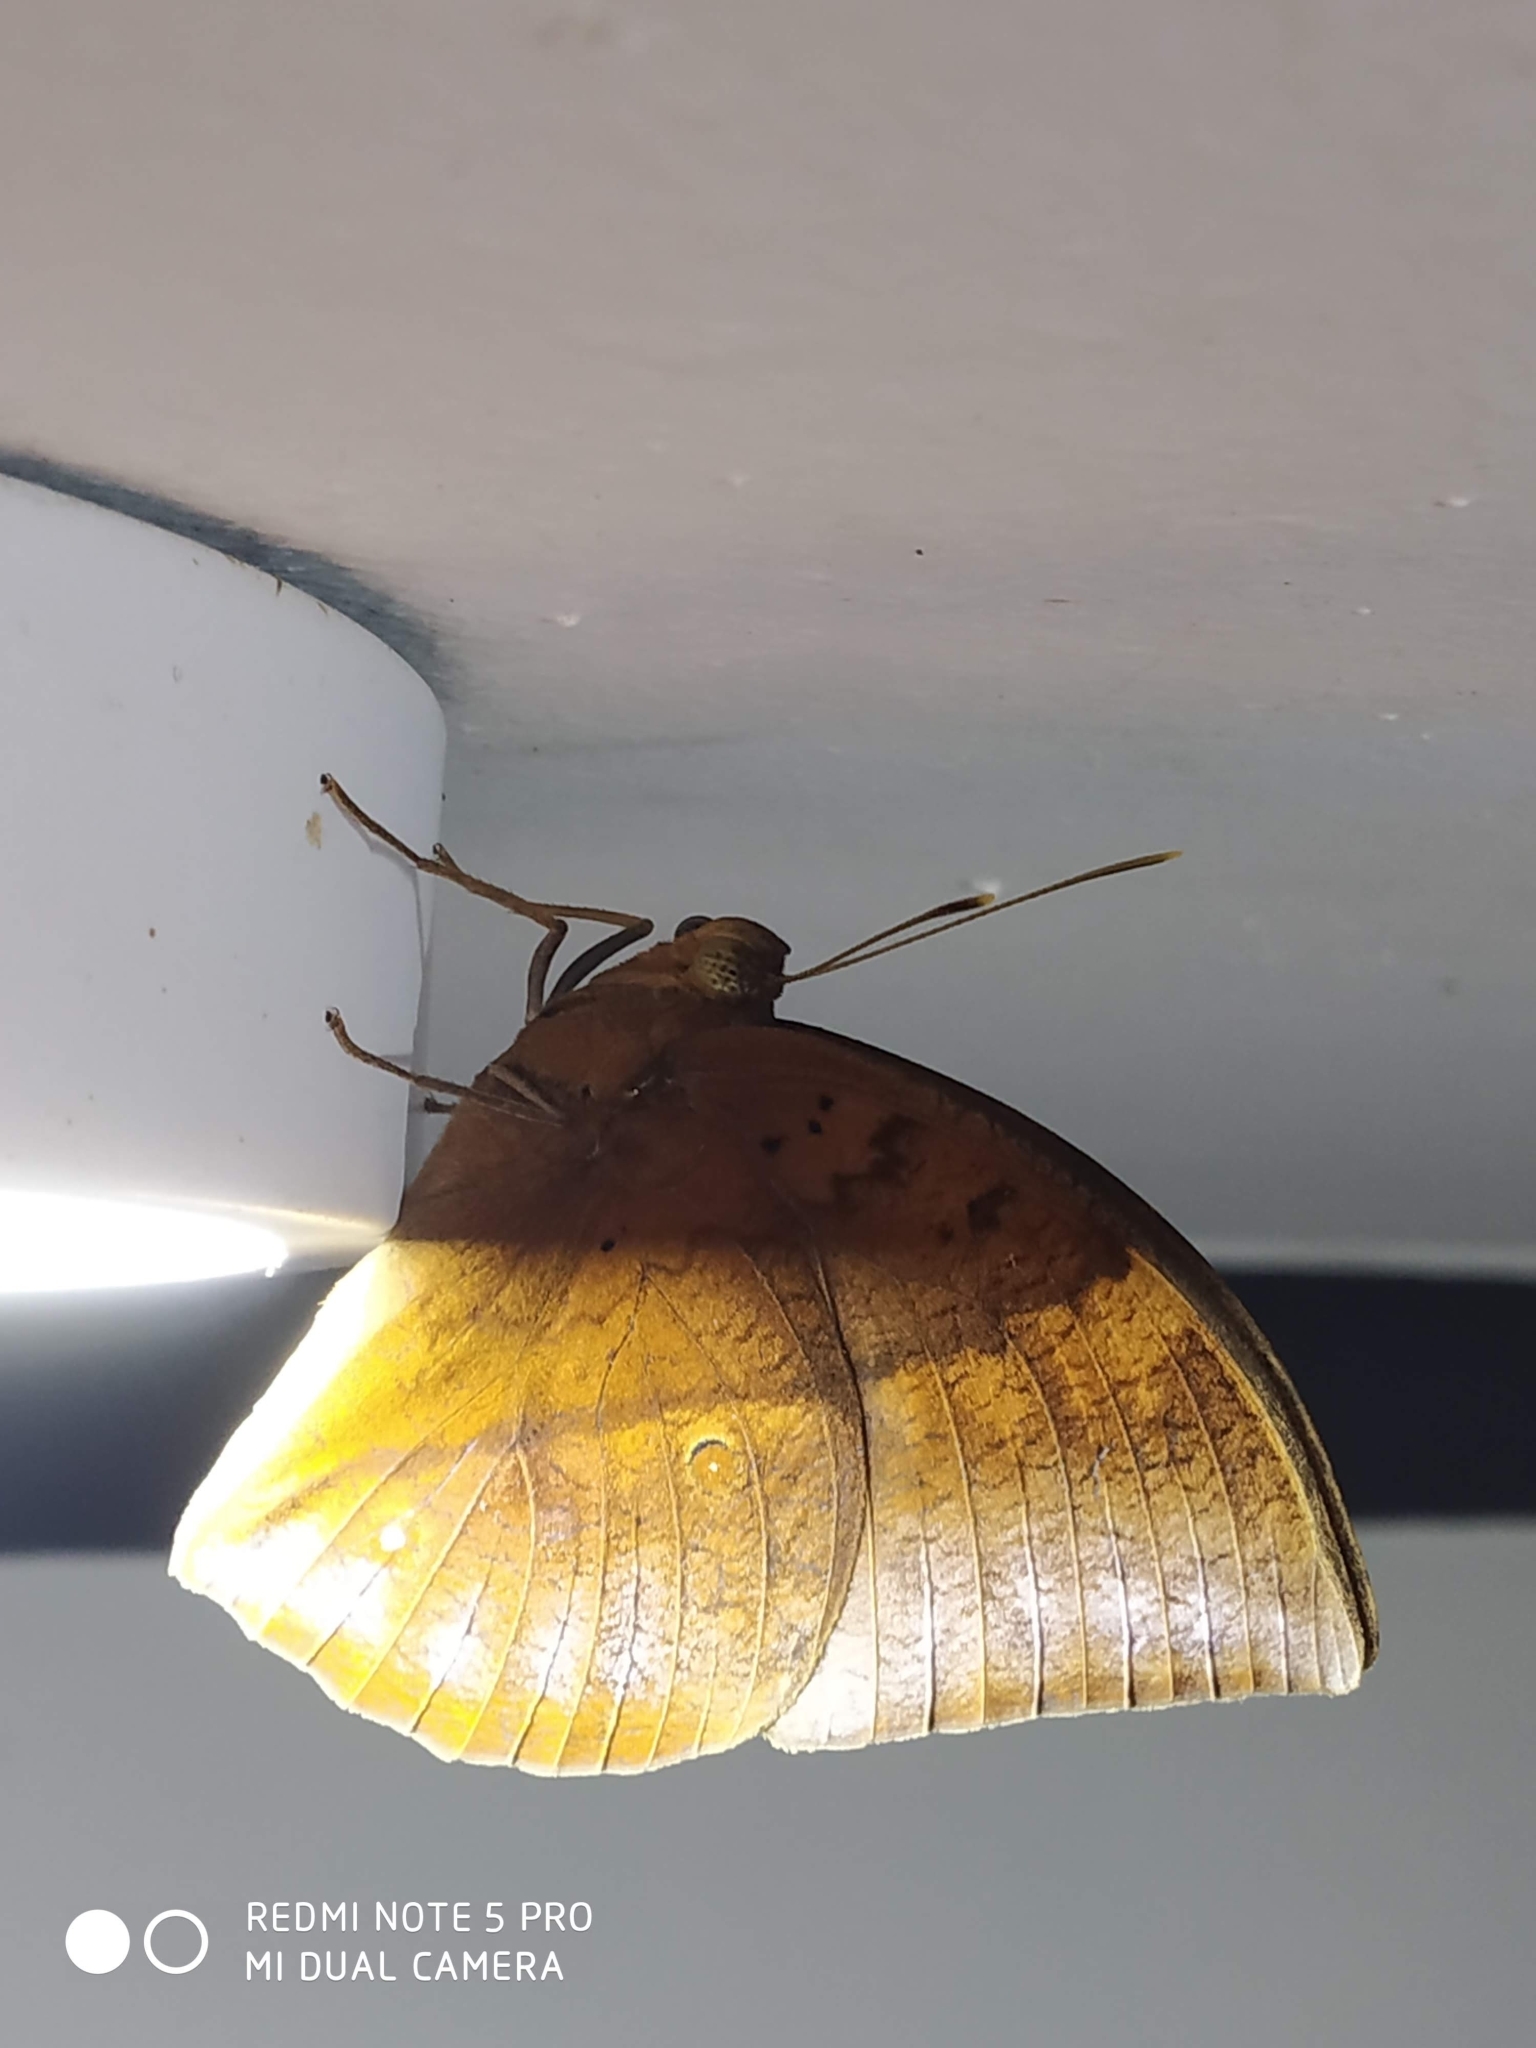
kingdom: Animalia
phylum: Arthropoda
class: Insecta
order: Lepidoptera
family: Nymphalidae
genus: Discophora
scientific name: Discophora lepida
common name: Southern duffer
